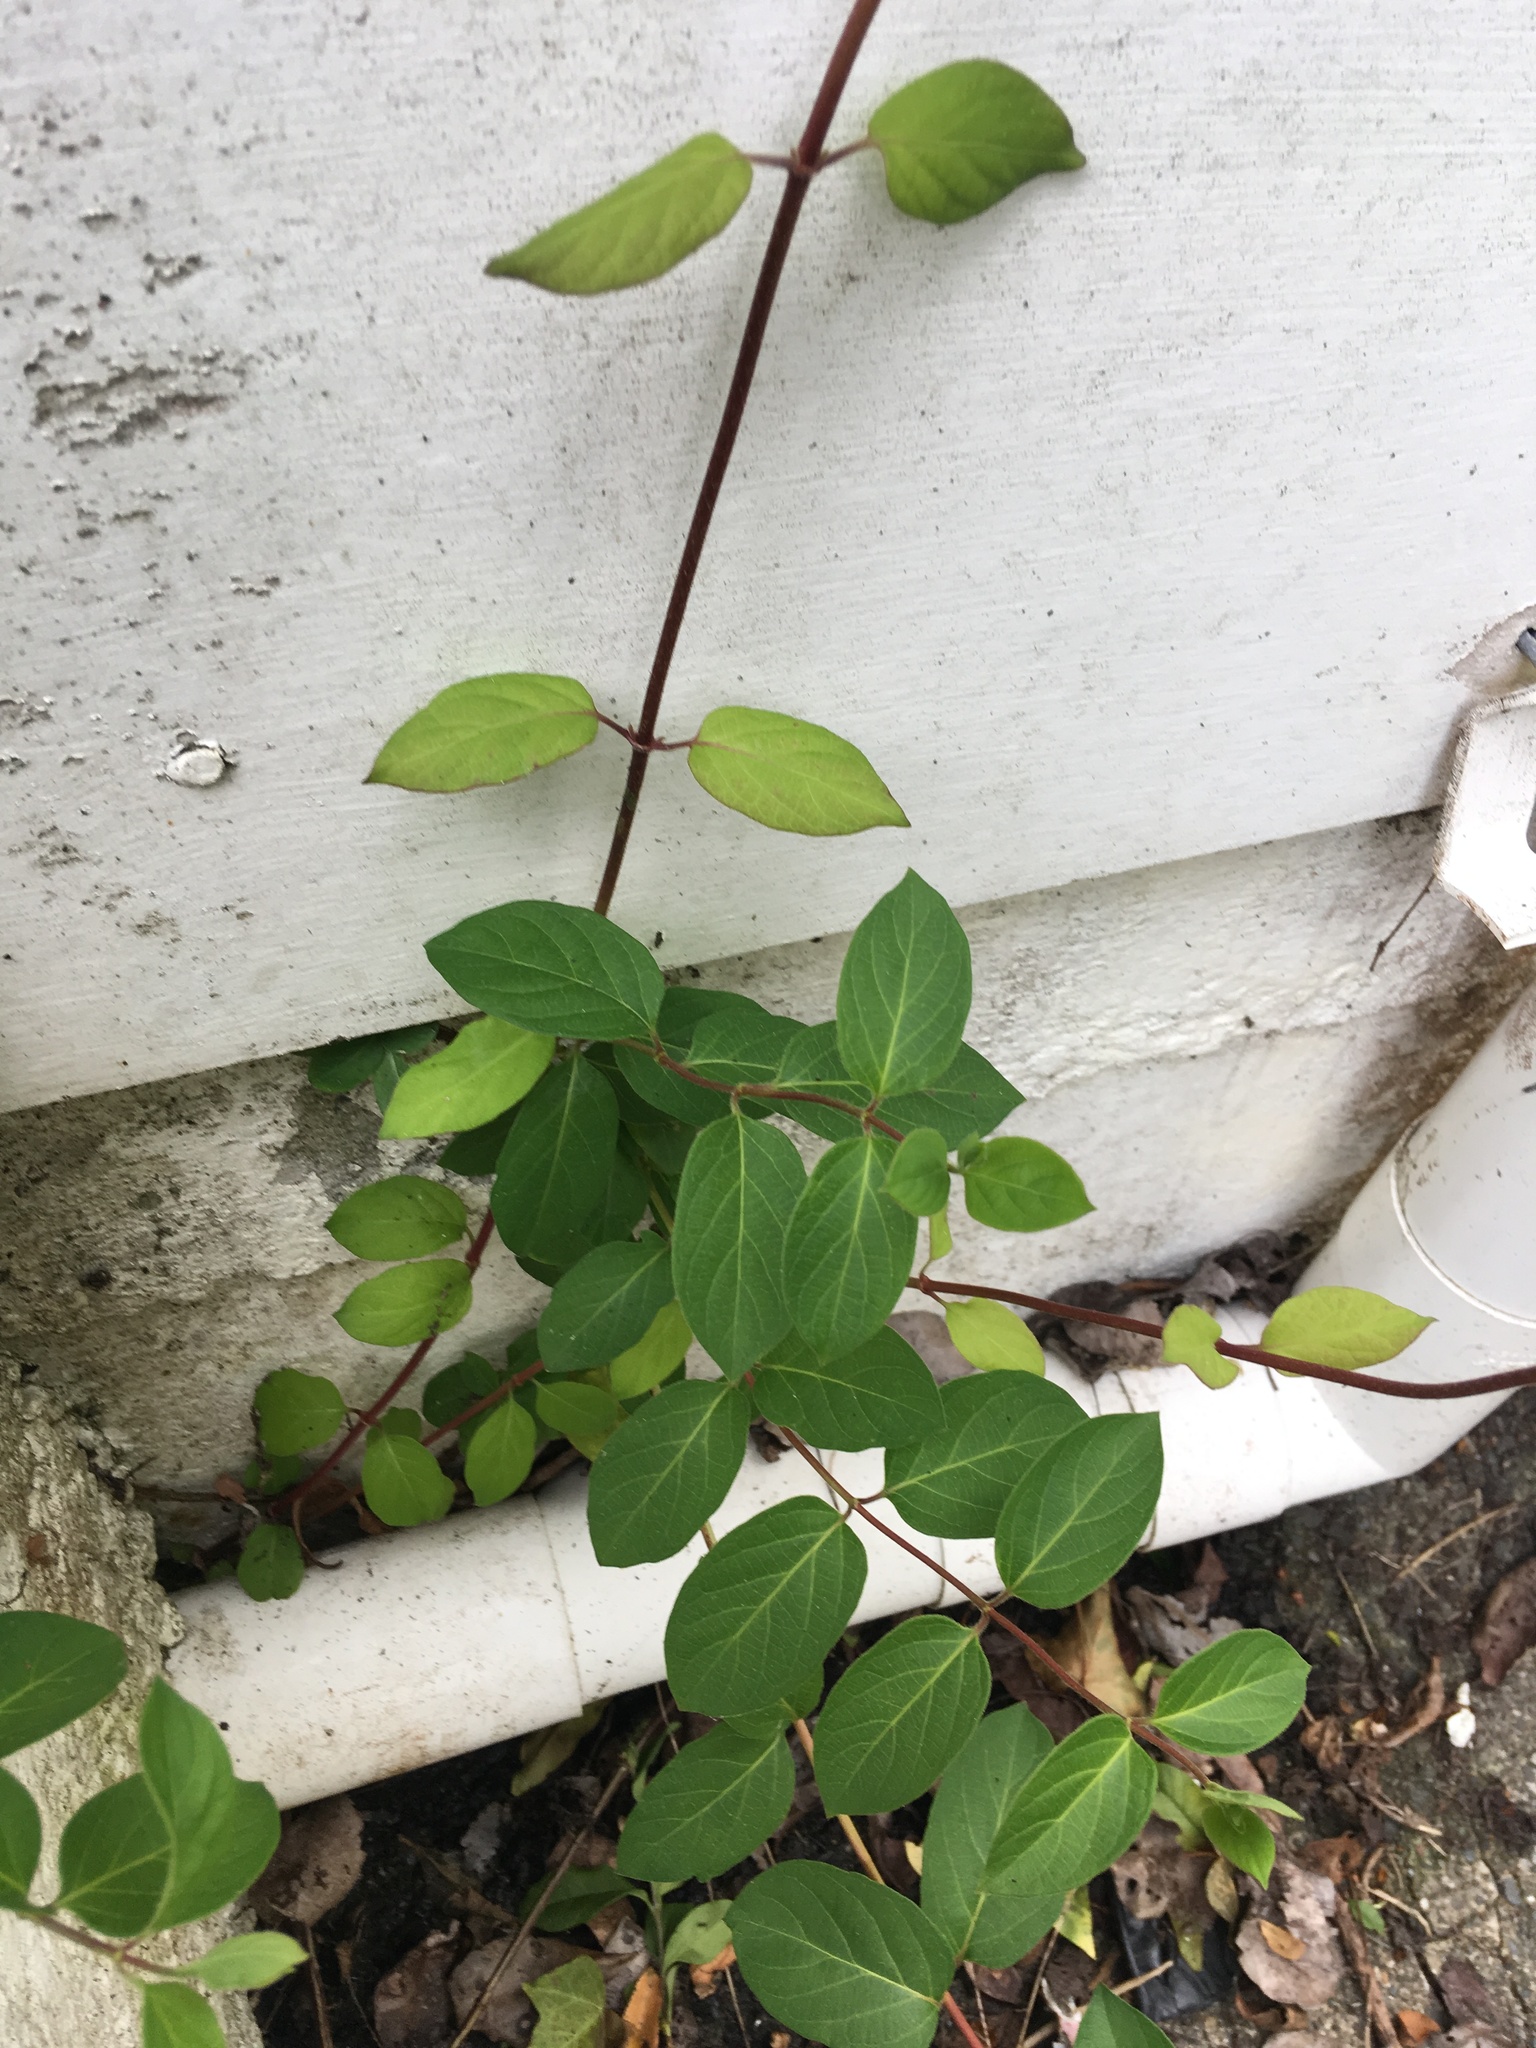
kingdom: Plantae
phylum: Tracheophyta
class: Magnoliopsida
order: Dipsacales
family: Caprifoliaceae
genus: Lonicera
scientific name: Lonicera japonica
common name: Japanese honeysuckle
